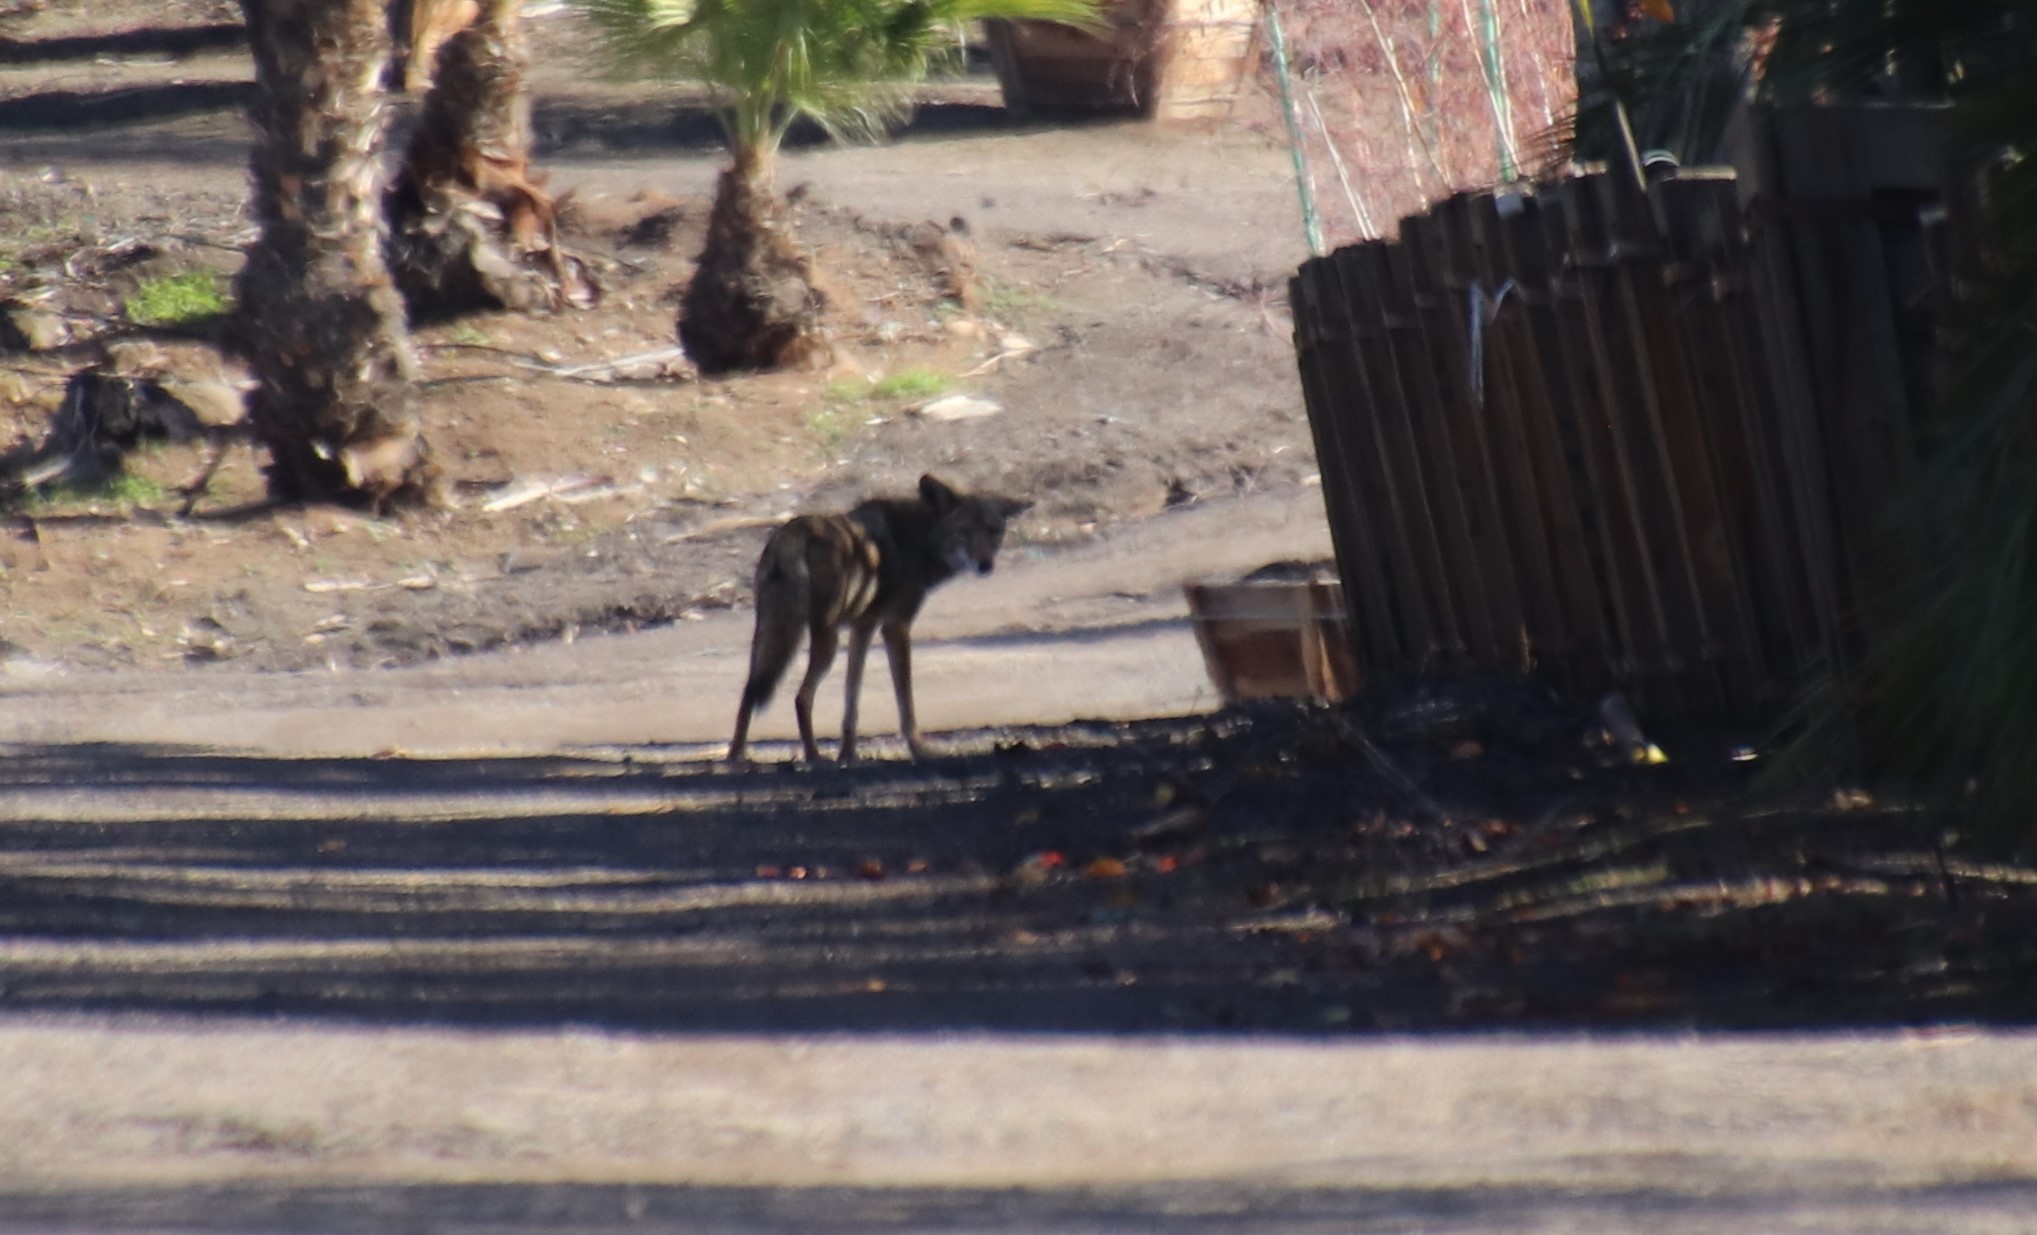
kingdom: Animalia
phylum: Chordata
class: Mammalia
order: Carnivora
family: Canidae
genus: Canis
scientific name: Canis latrans
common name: Coyote
